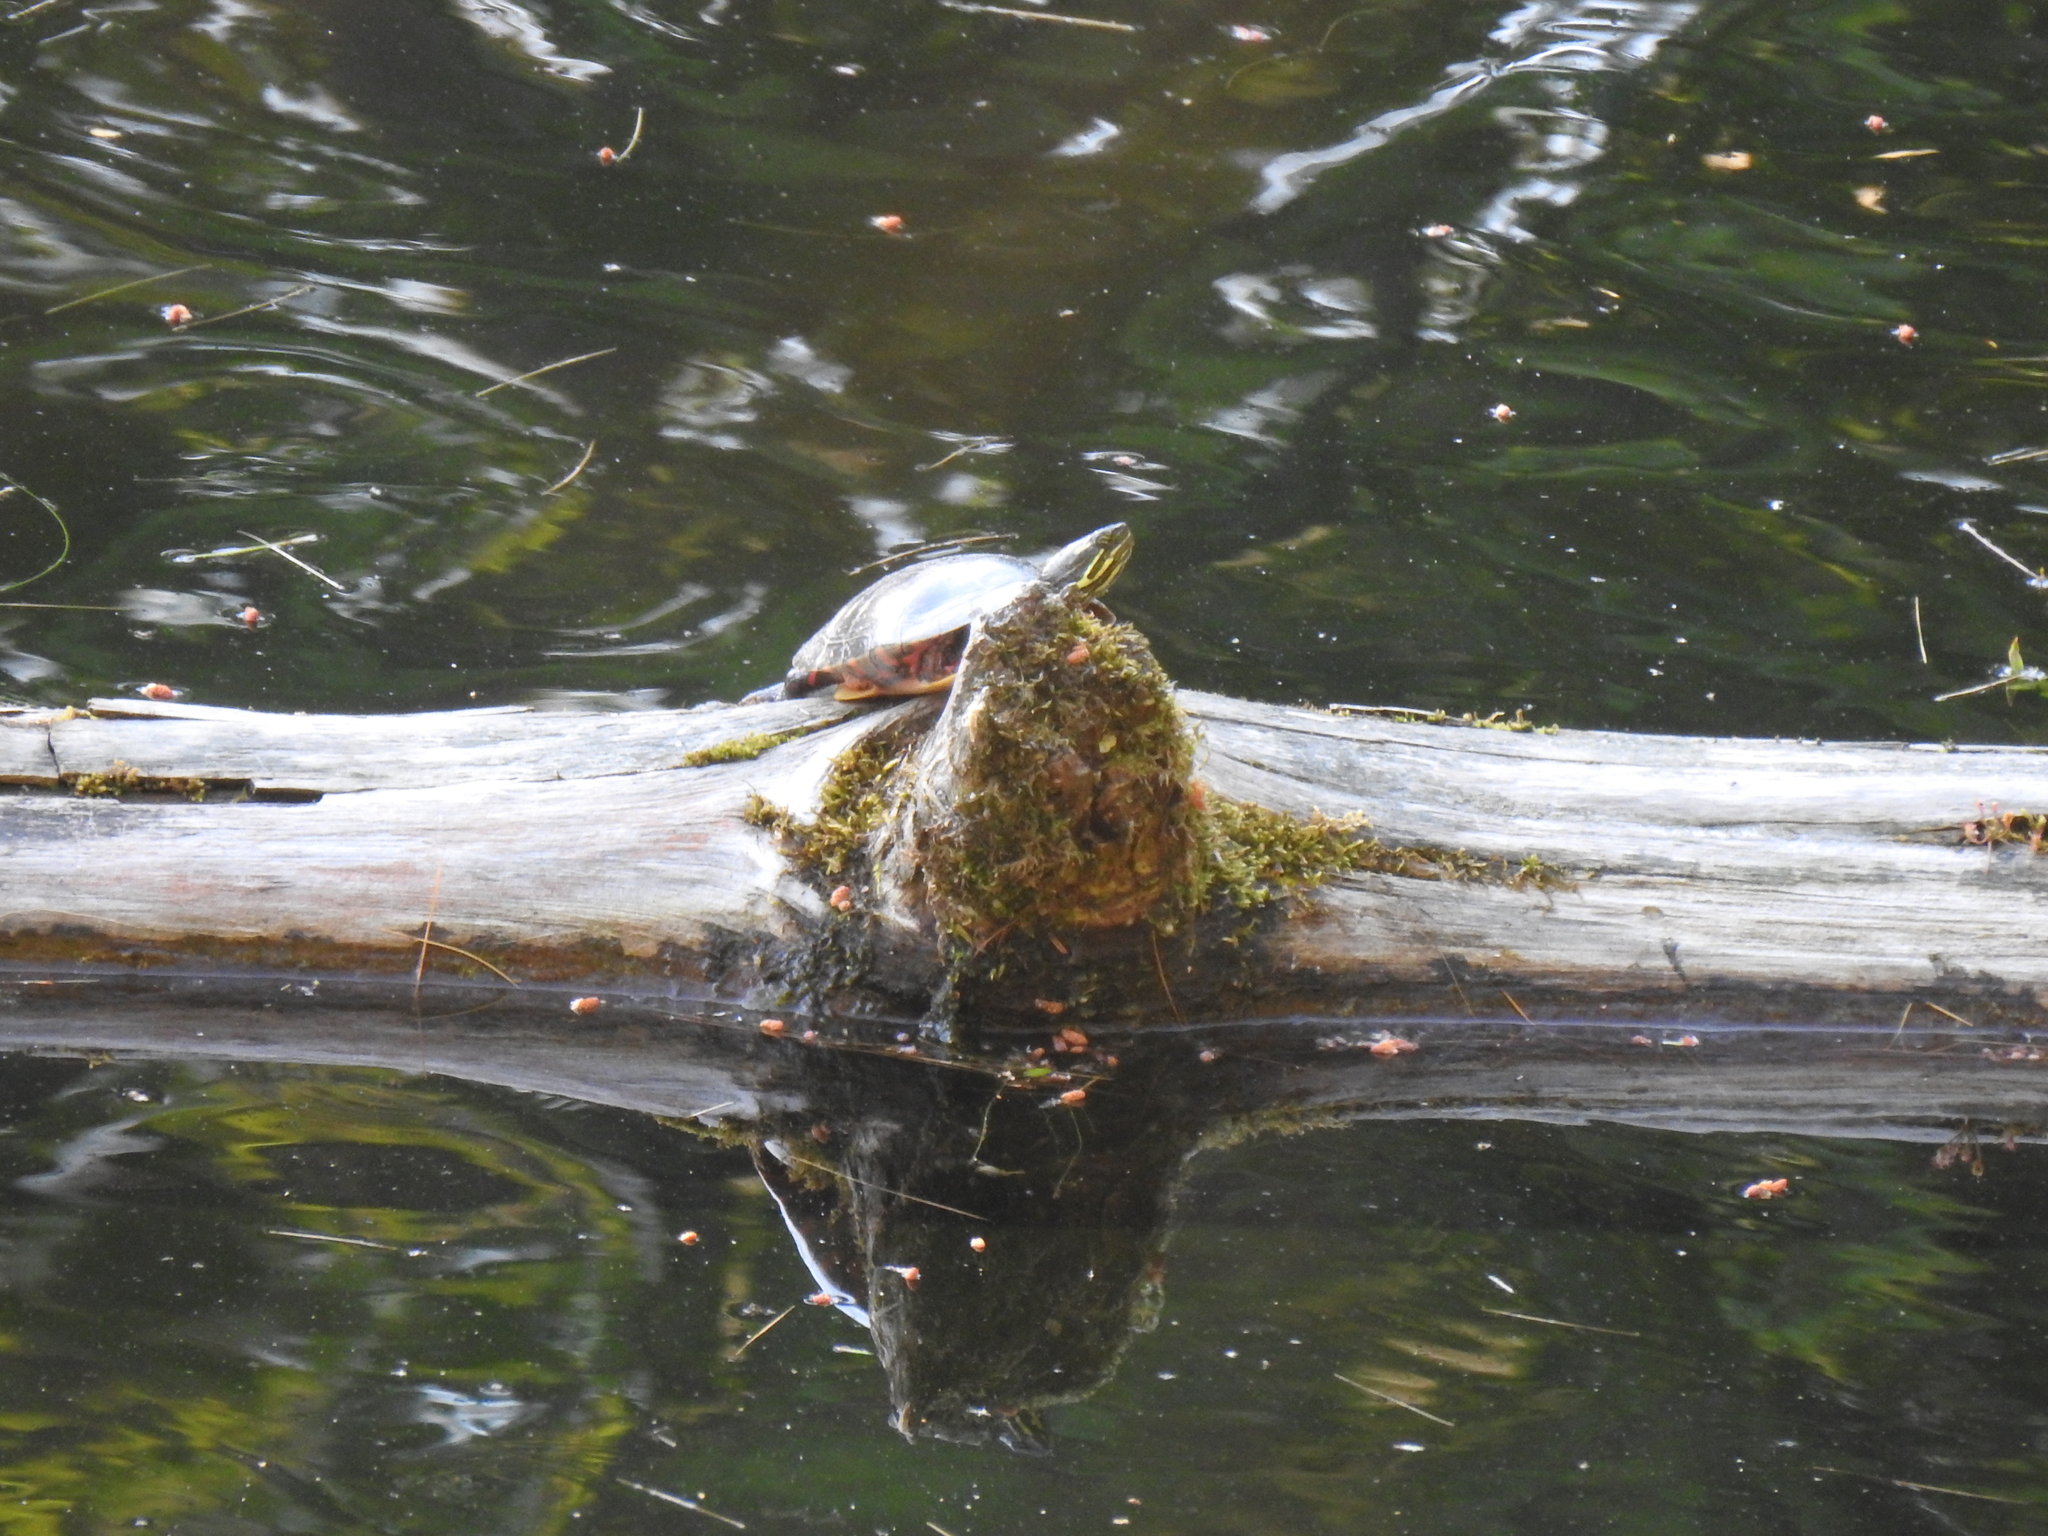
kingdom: Animalia
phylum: Chordata
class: Testudines
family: Emydidae
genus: Chrysemys
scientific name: Chrysemys picta
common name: Painted turtle
